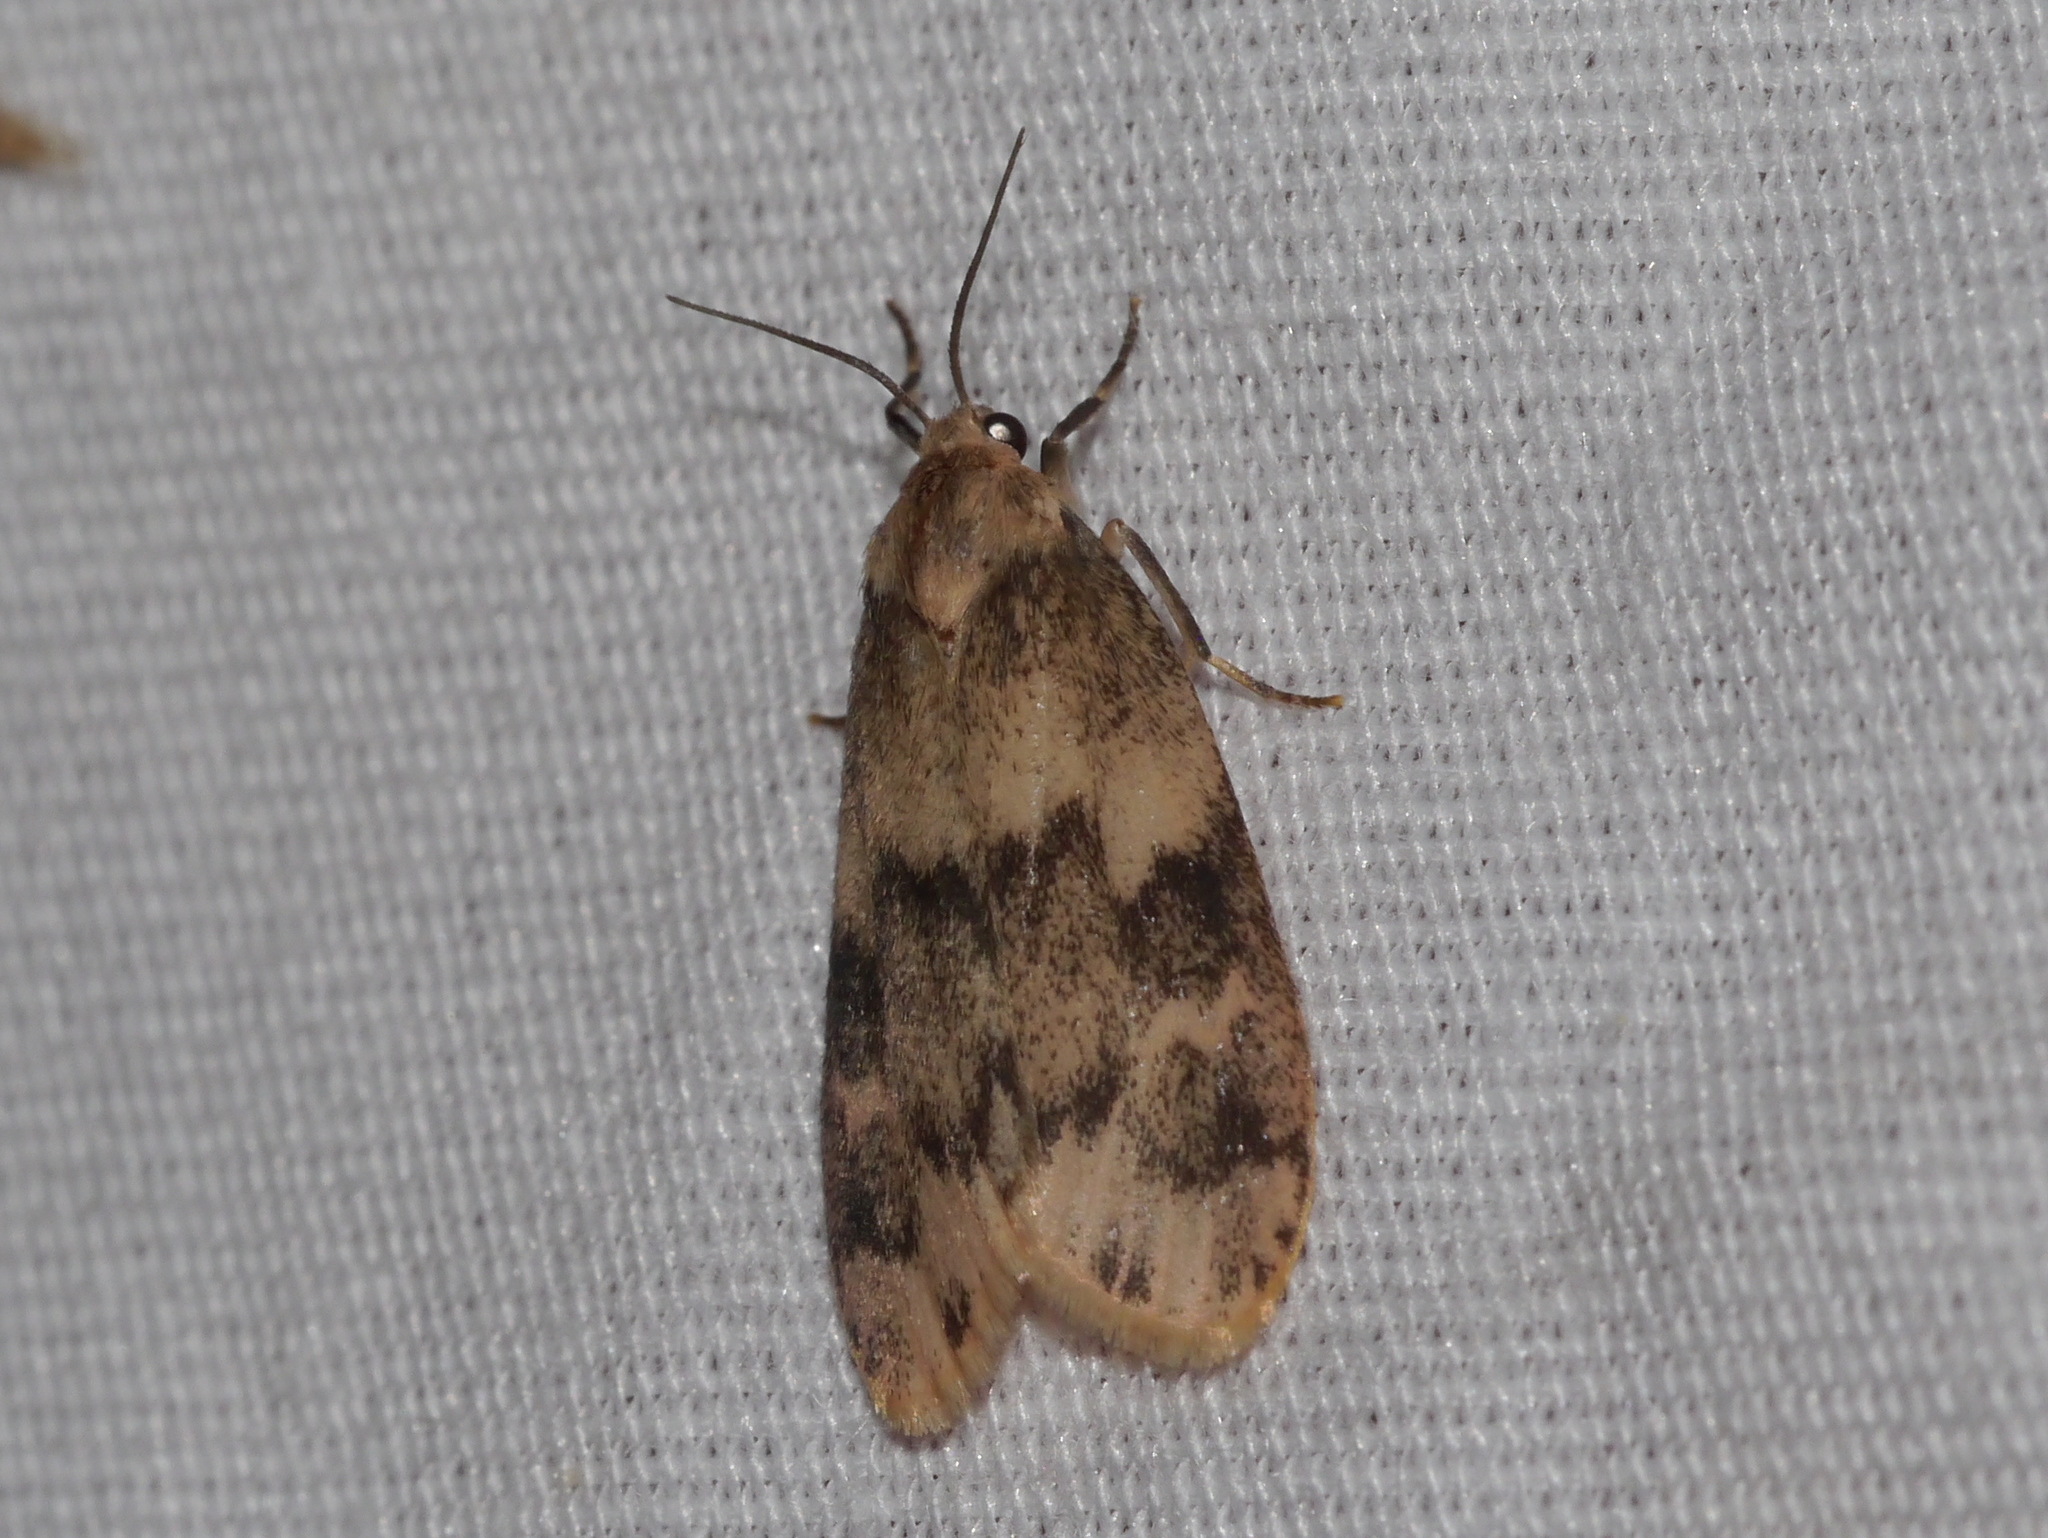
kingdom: Animalia
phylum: Arthropoda
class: Insecta
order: Lepidoptera
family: Erebidae
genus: Bruceia
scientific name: Bruceia hubbardi
